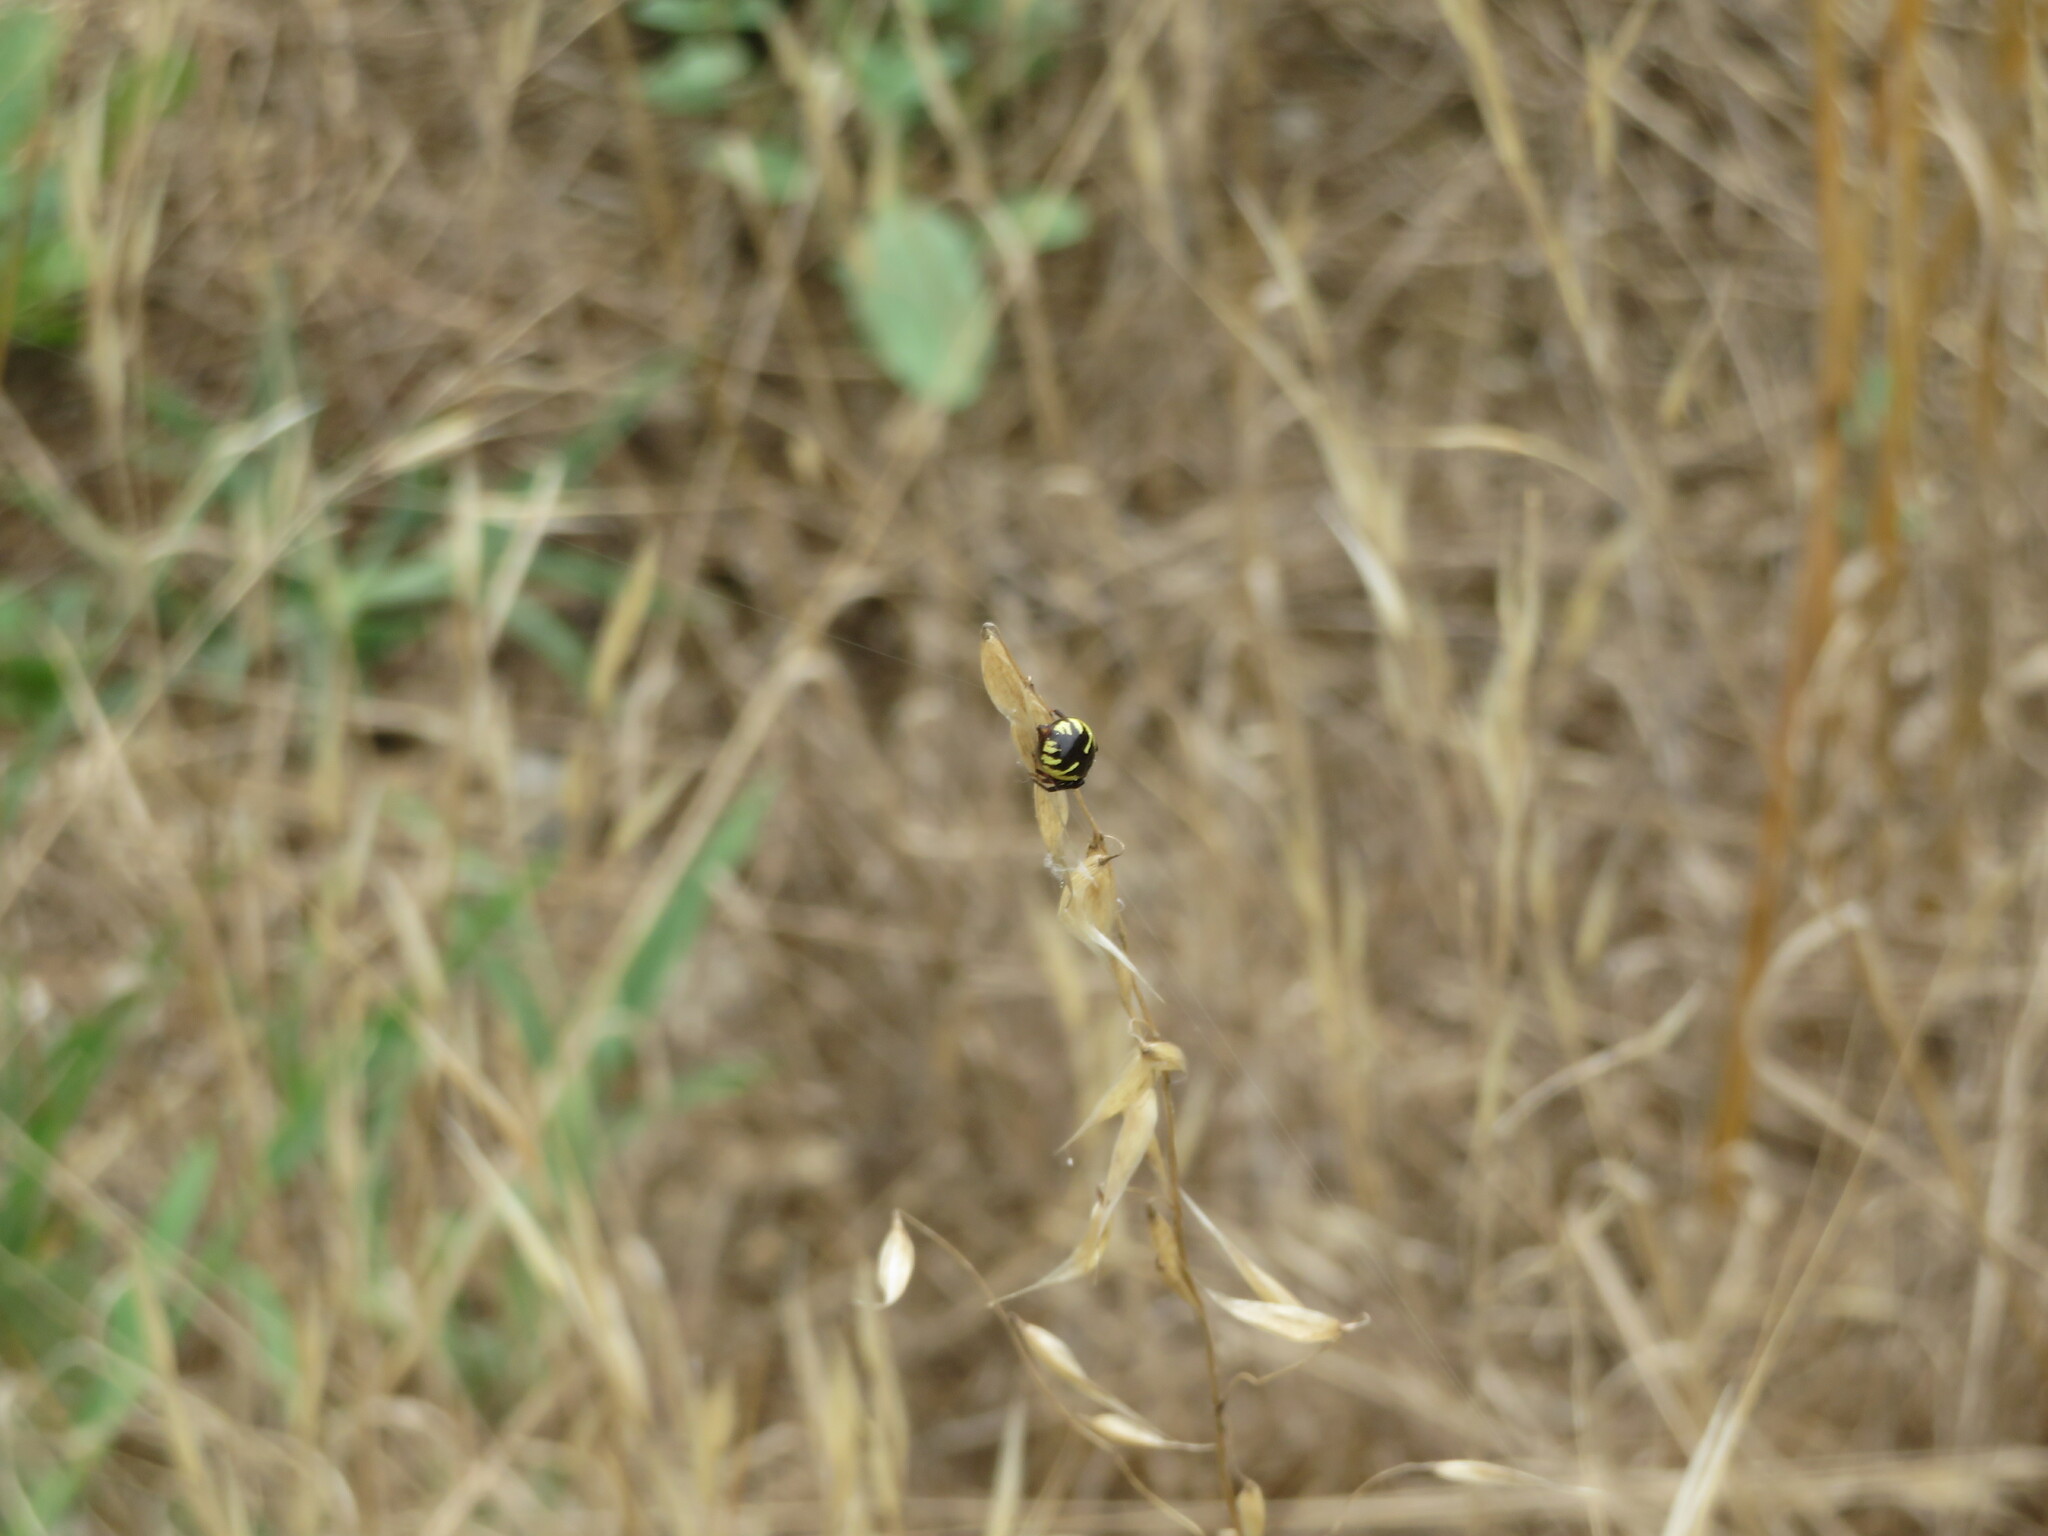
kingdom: Animalia
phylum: Arthropoda
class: Arachnida
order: Araneae
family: Thomisidae
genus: Synema
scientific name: Synema globosum
